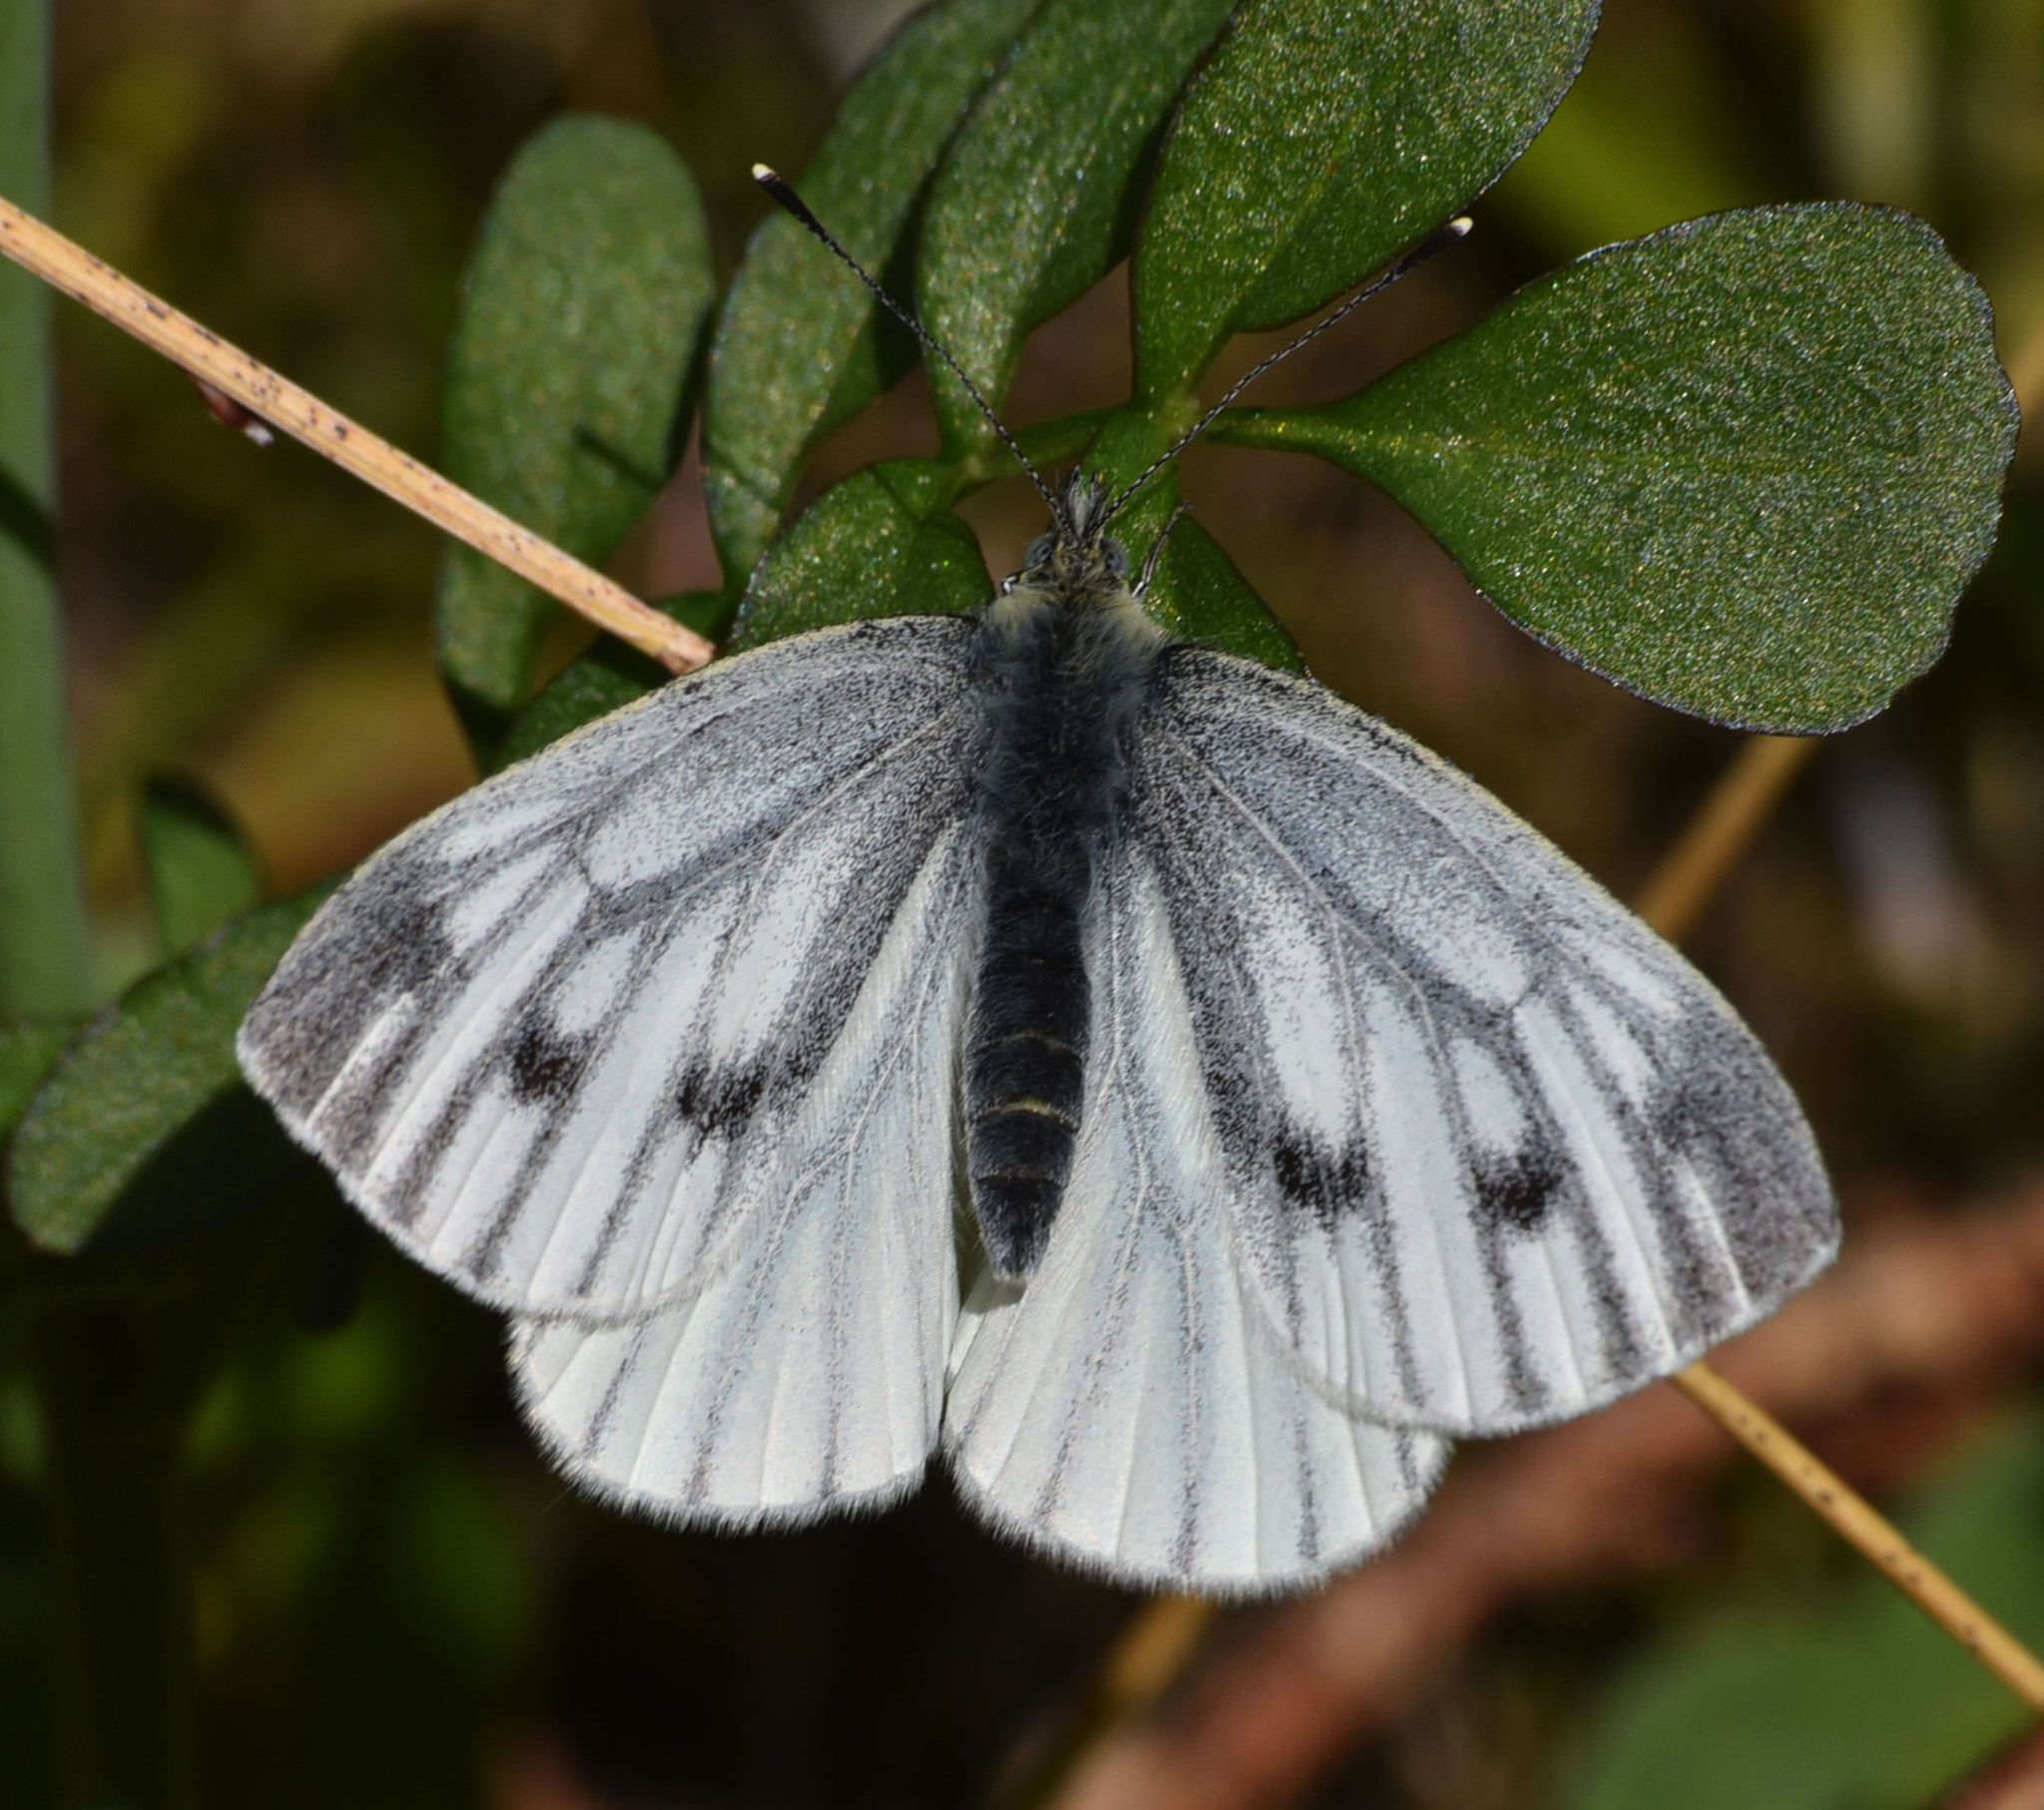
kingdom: Animalia
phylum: Arthropoda
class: Insecta
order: Lepidoptera
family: Pieridae
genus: Pieris
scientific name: Pieris napi
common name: Green-veined white
